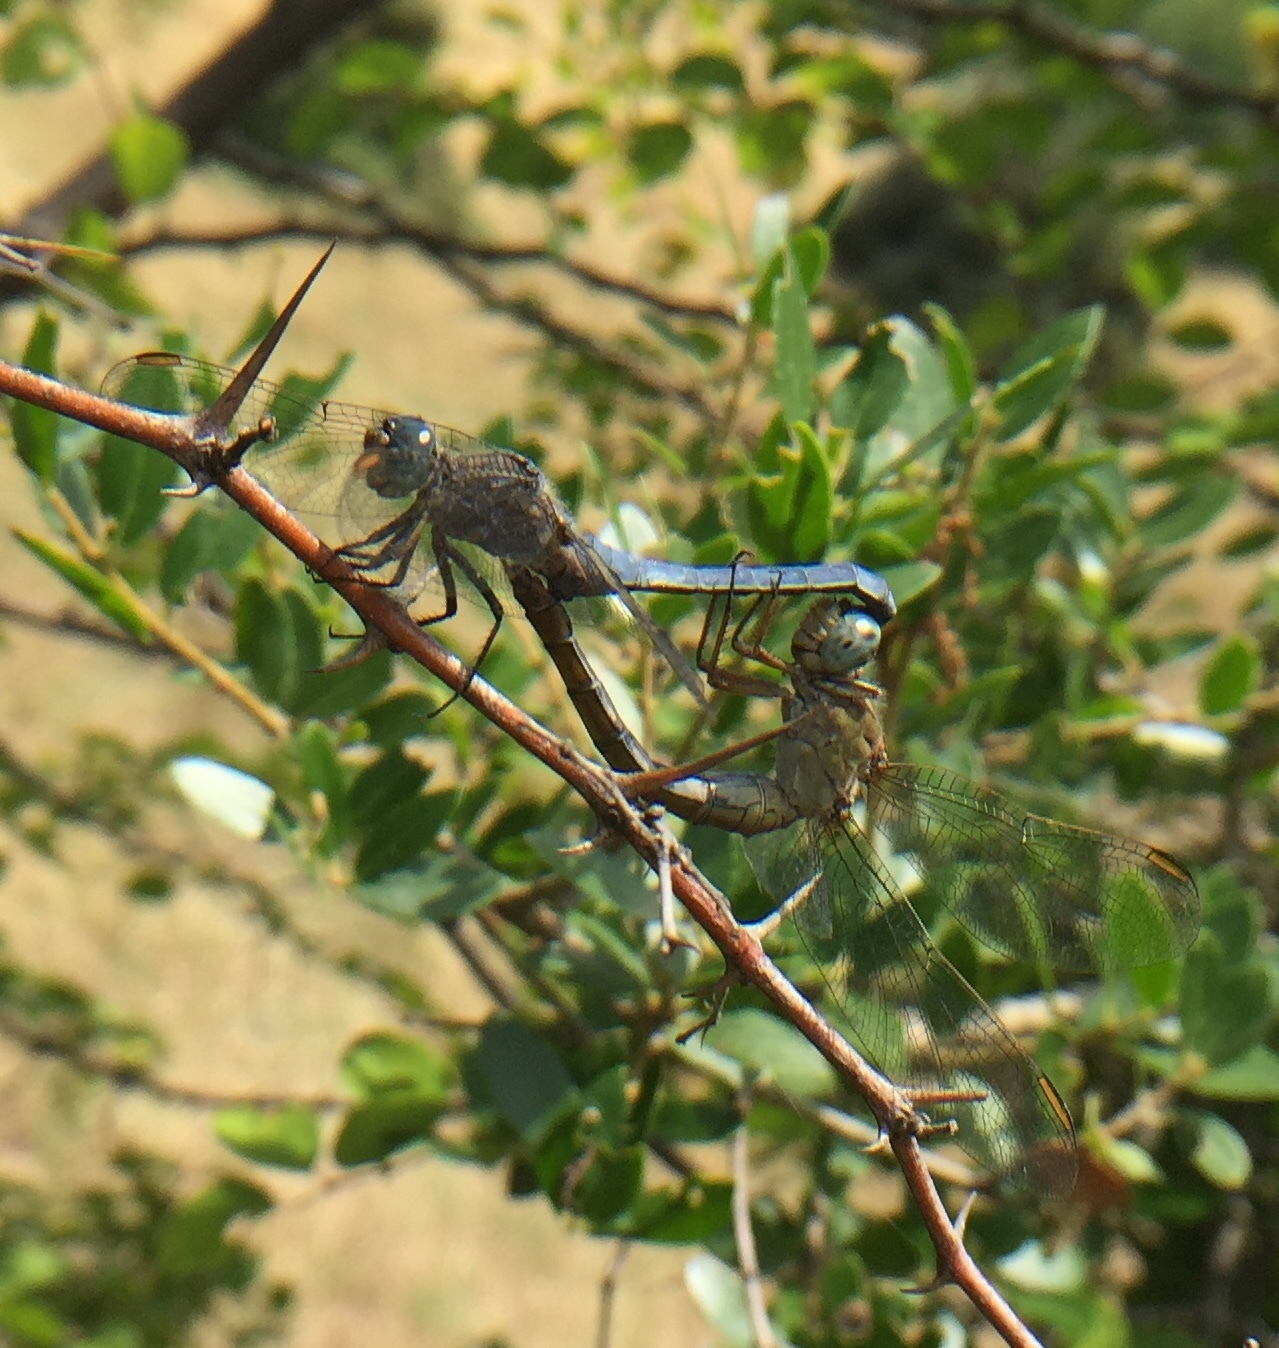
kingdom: Animalia
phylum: Arthropoda
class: Insecta
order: Odonata
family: Libellulidae
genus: Orthetrum
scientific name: Orthetrum coerulescens
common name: Keeled skimmer
